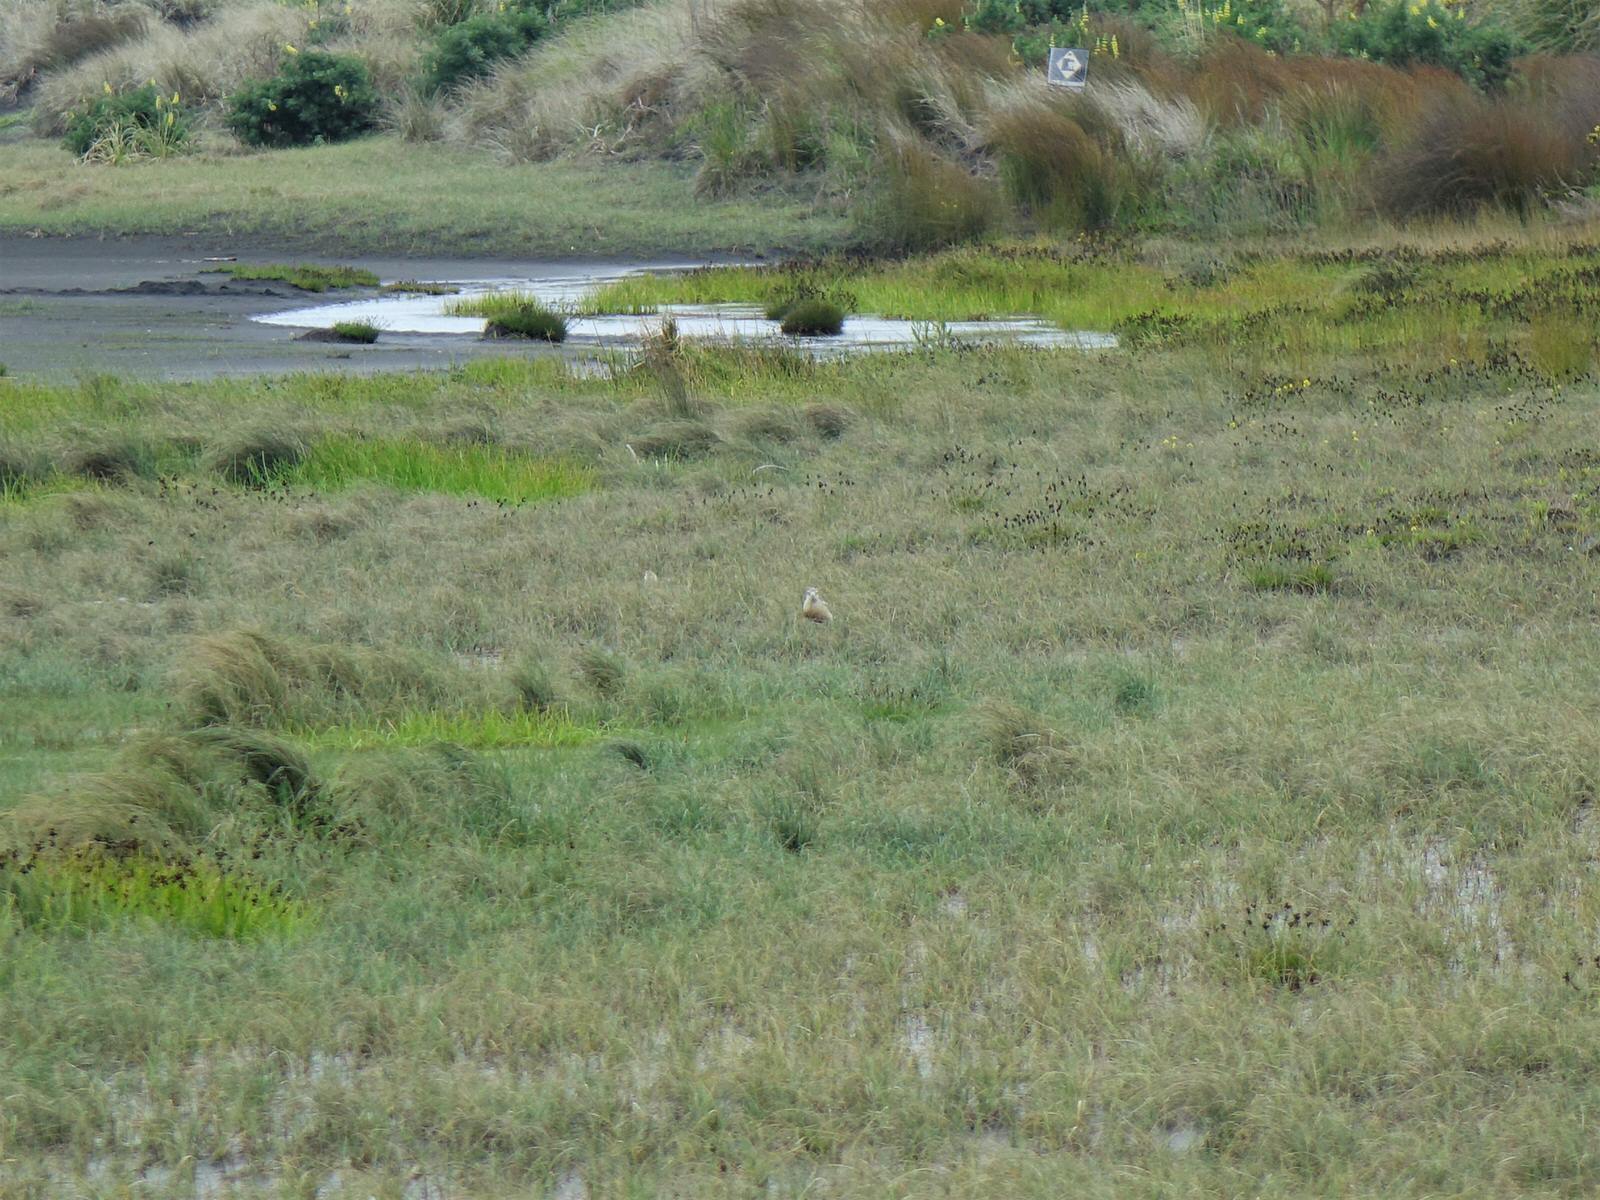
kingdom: Animalia
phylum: Chordata
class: Aves
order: Charadriiformes
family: Charadriidae
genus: Anarhynchus
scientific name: Anarhynchus
